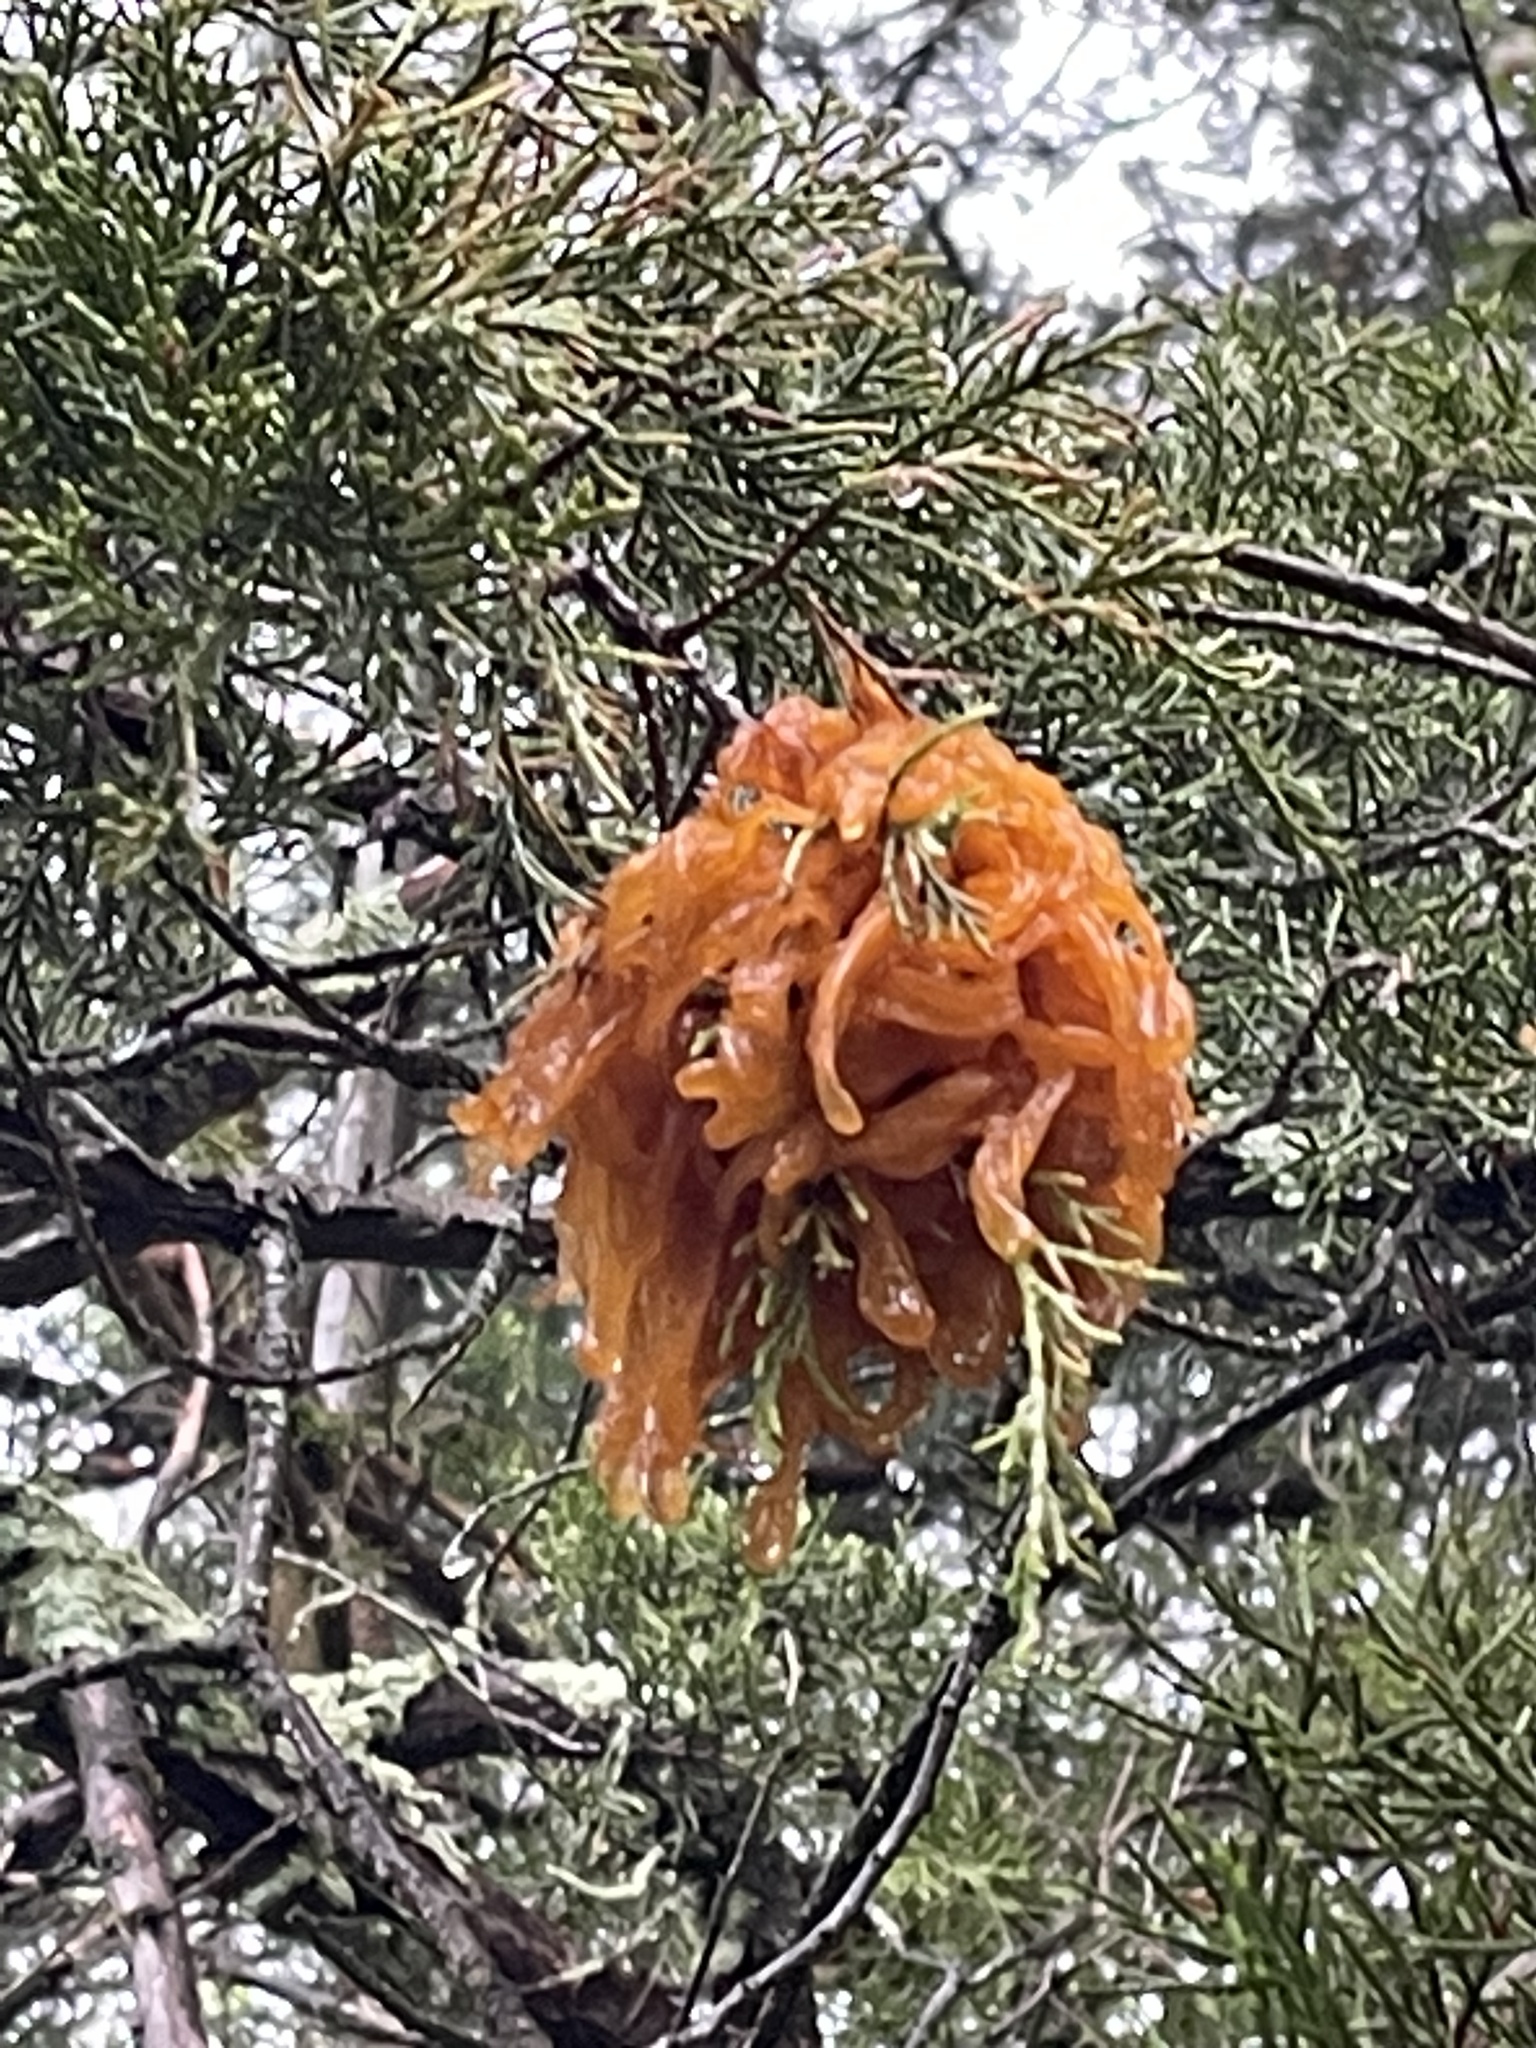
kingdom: Fungi
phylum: Basidiomycota
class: Pucciniomycetes
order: Pucciniales
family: Gymnosporangiaceae
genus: Gymnosporangium
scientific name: Gymnosporangium juniperi-virginianae
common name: Juniper-apple rust
